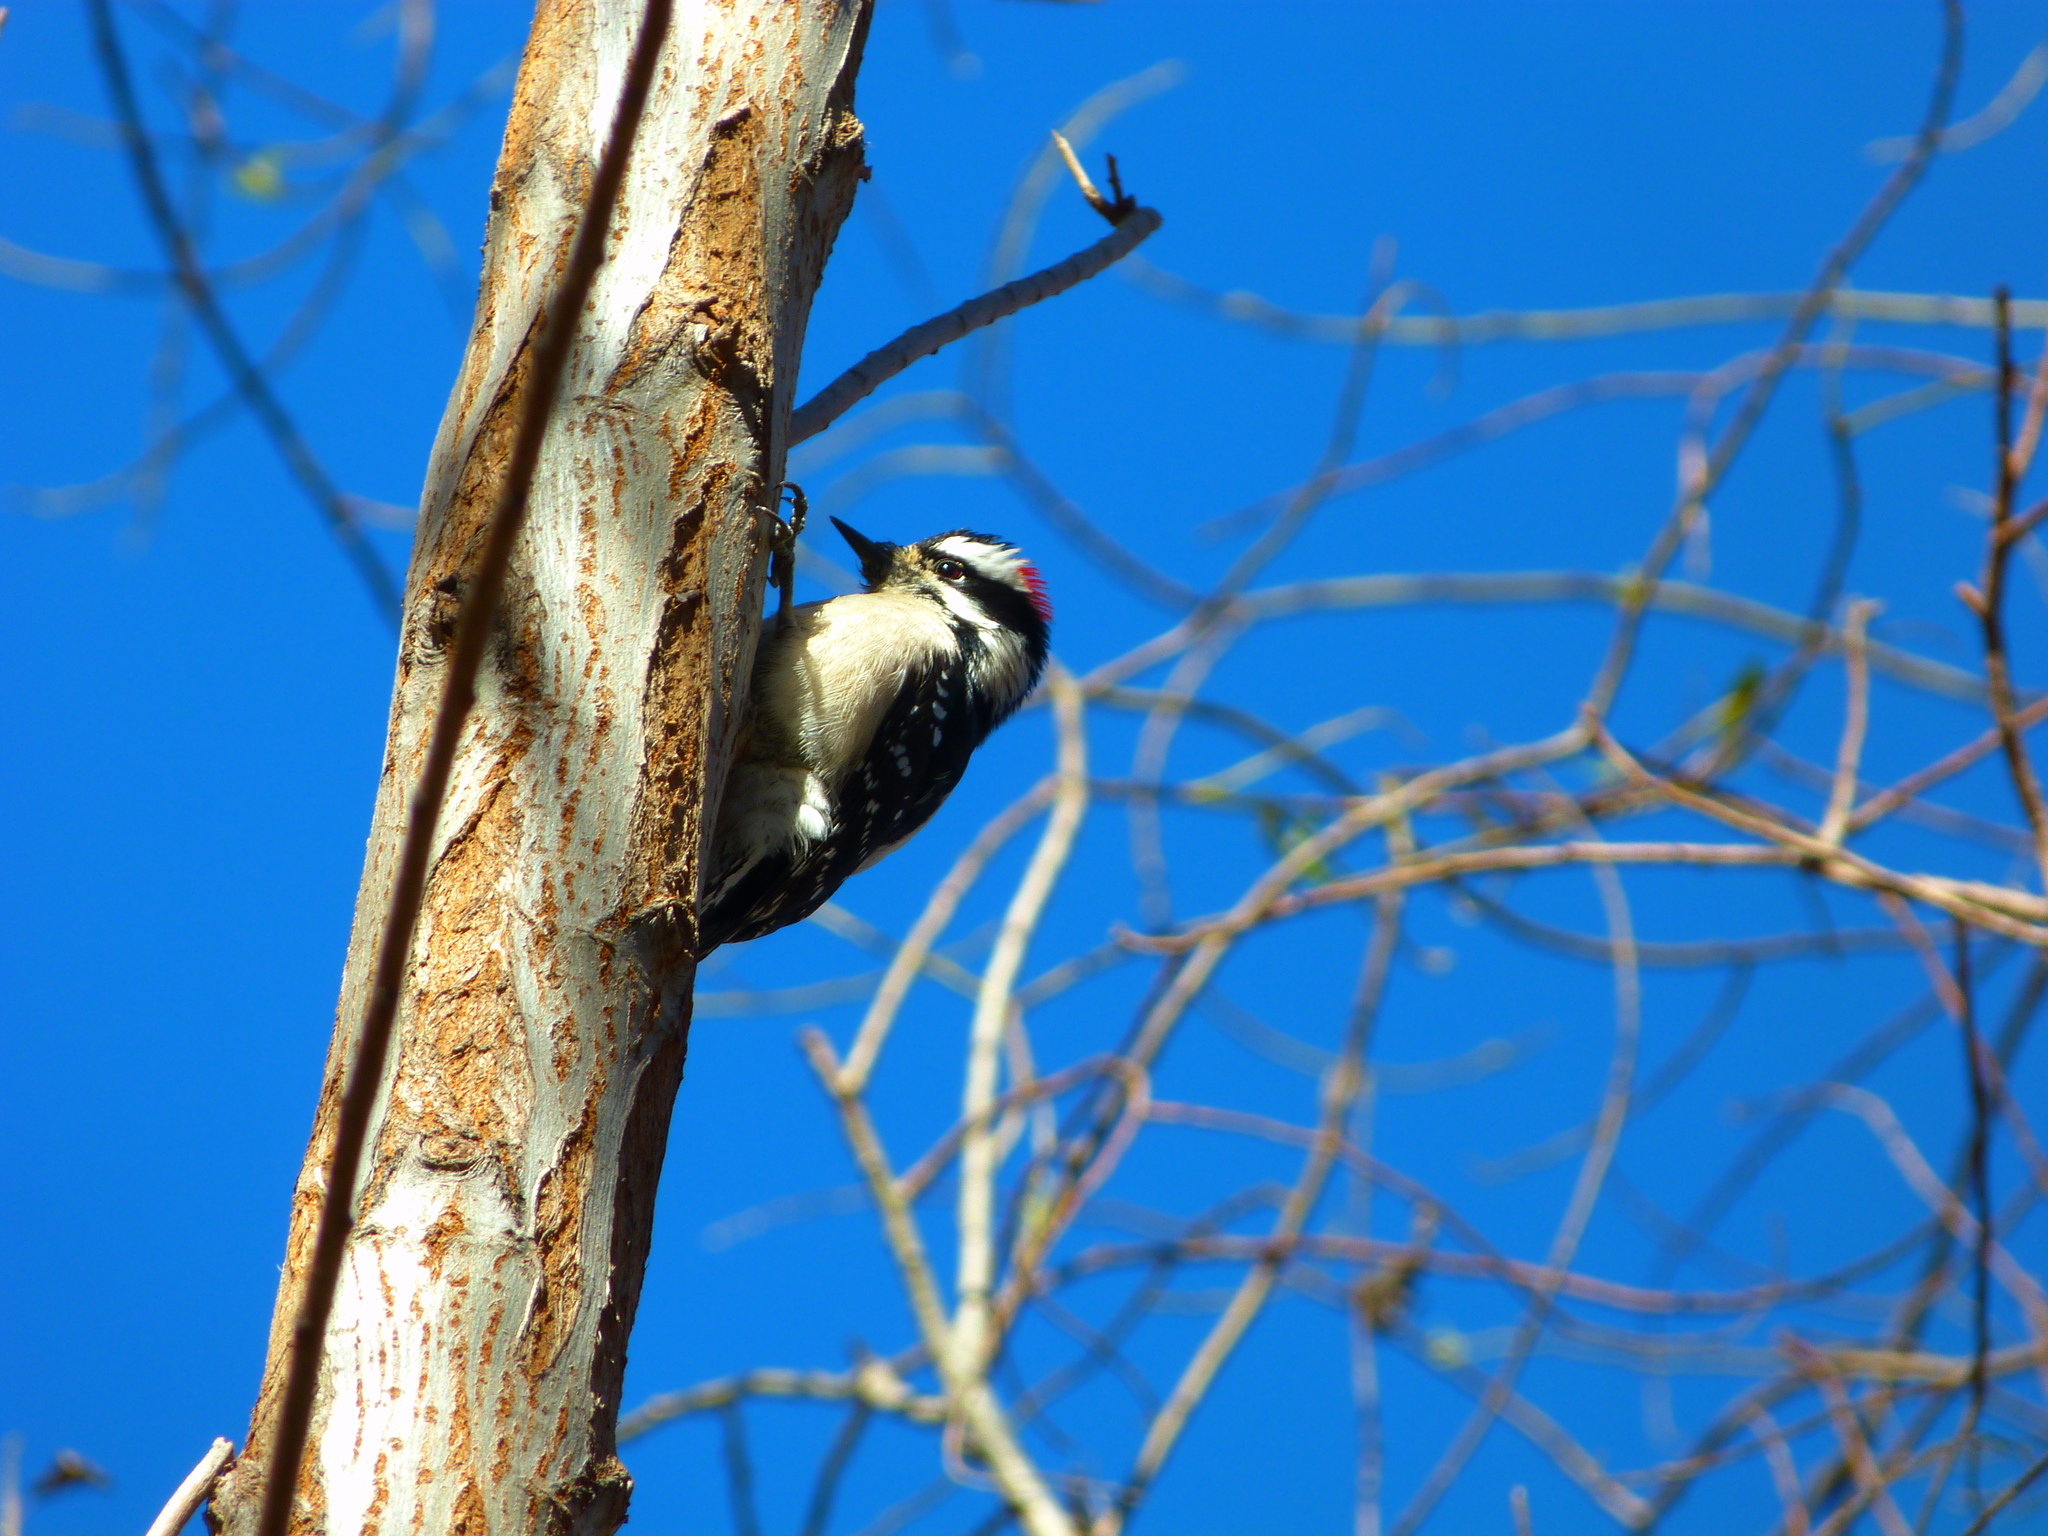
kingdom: Animalia
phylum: Chordata
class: Aves
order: Piciformes
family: Picidae
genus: Dryobates
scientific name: Dryobates pubescens
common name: Downy woodpecker
